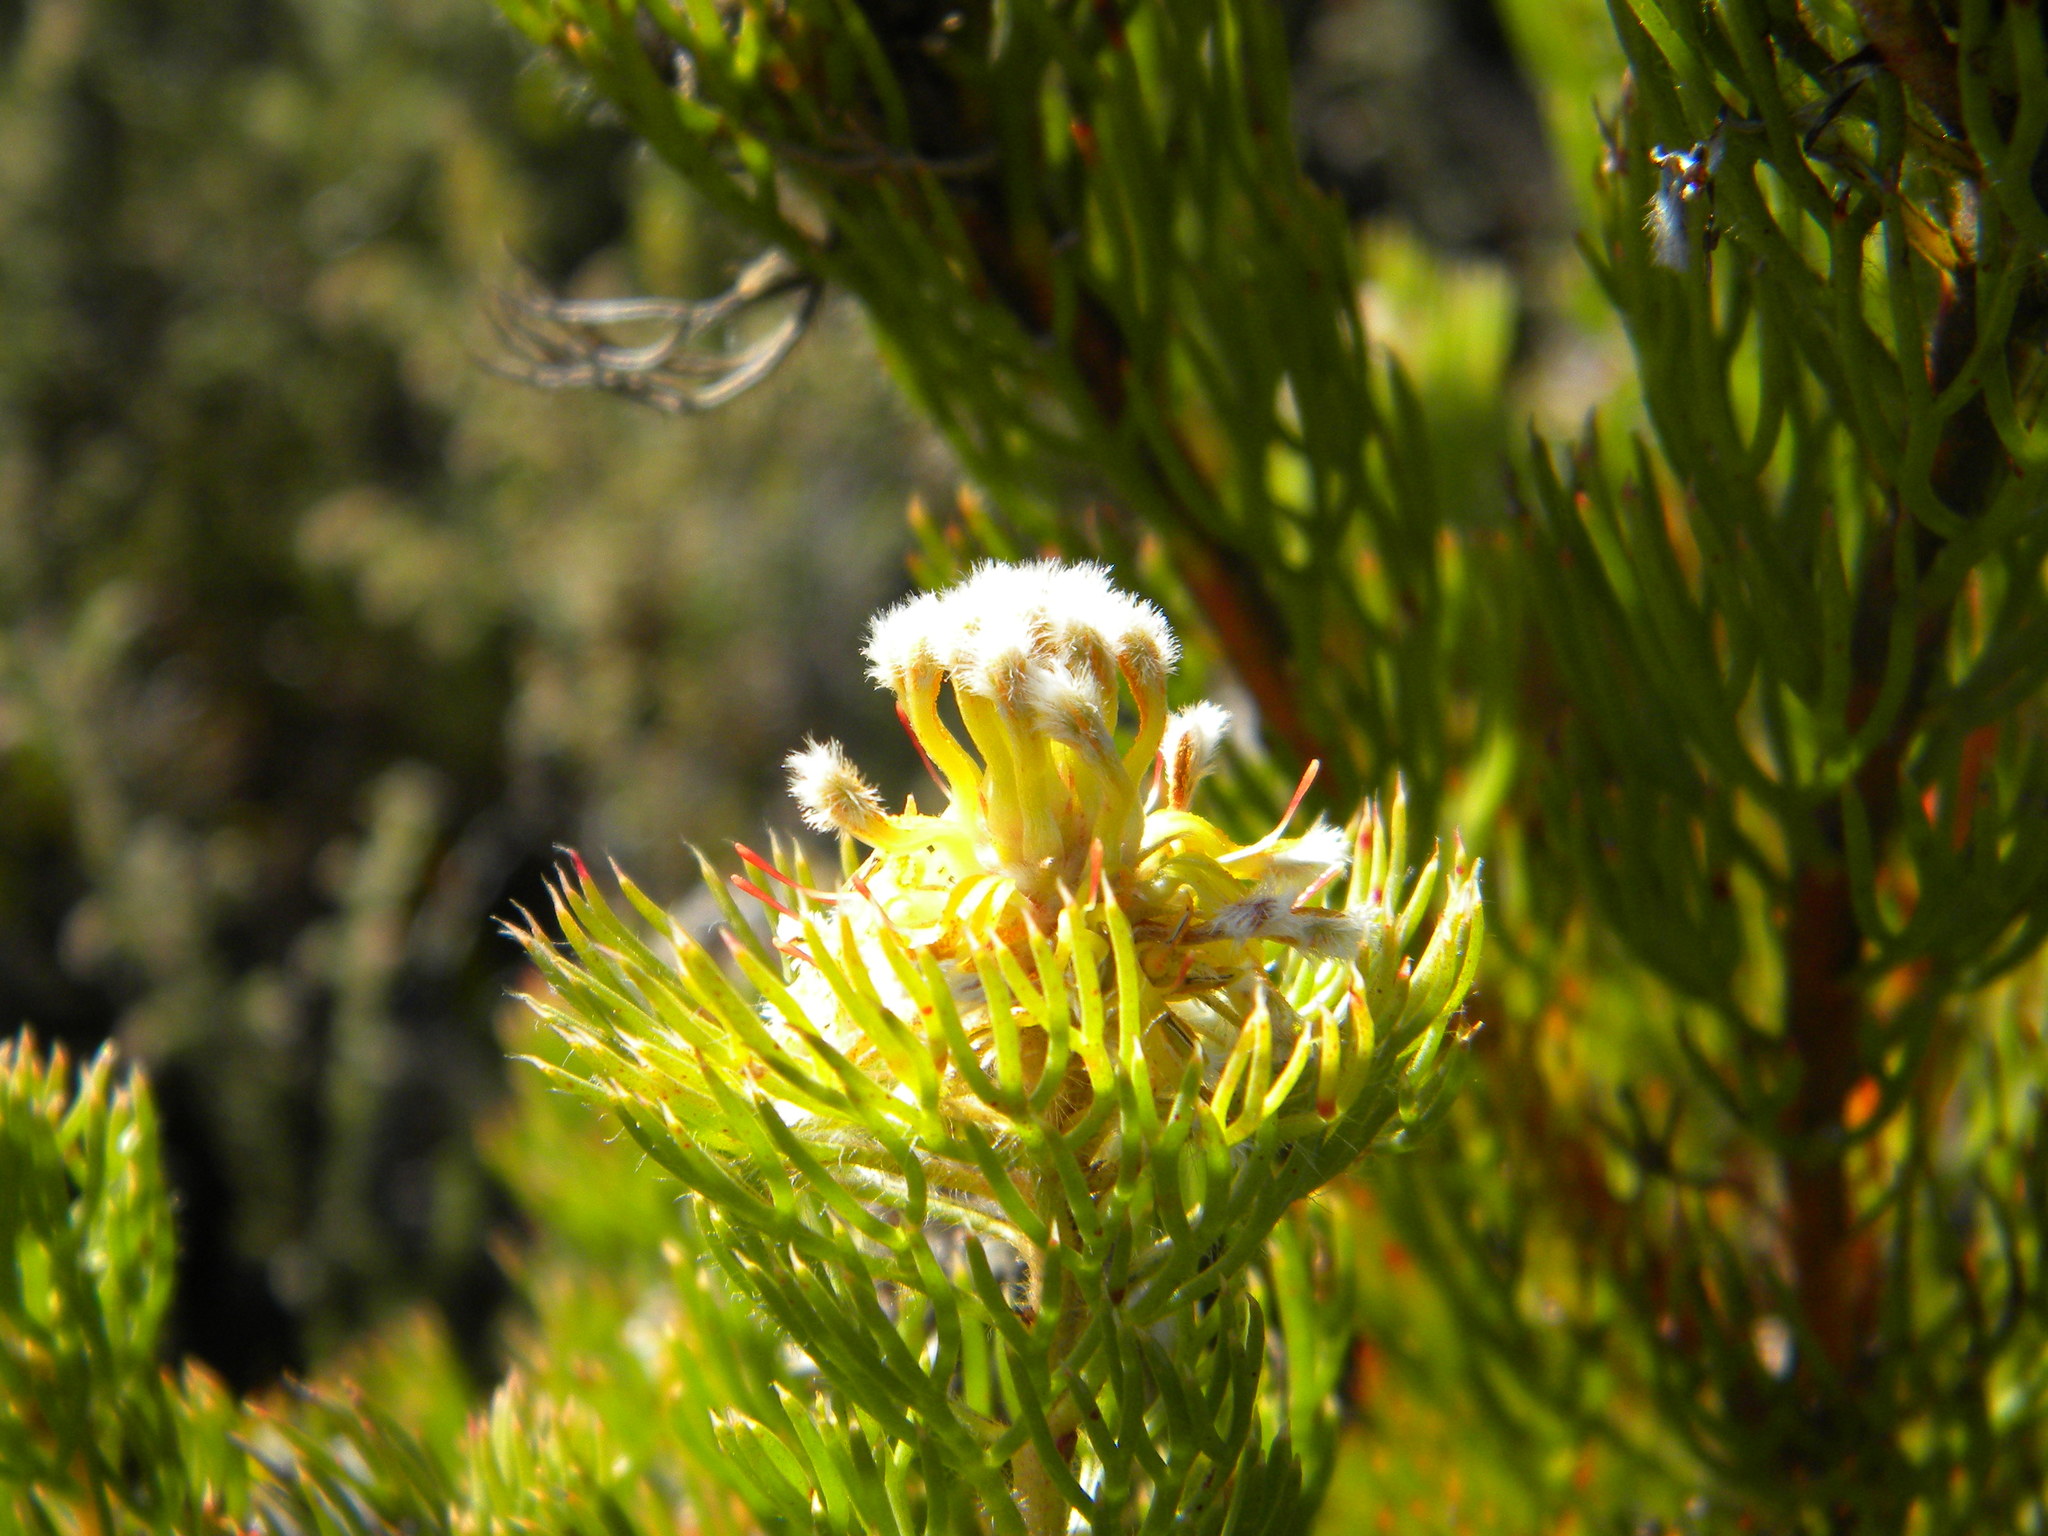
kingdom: Plantae
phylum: Tracheophyta
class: Magnoliopsida
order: Proteales
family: Proteaceae
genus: Serruria
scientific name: Serruria villosa
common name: Golden spiderhead
